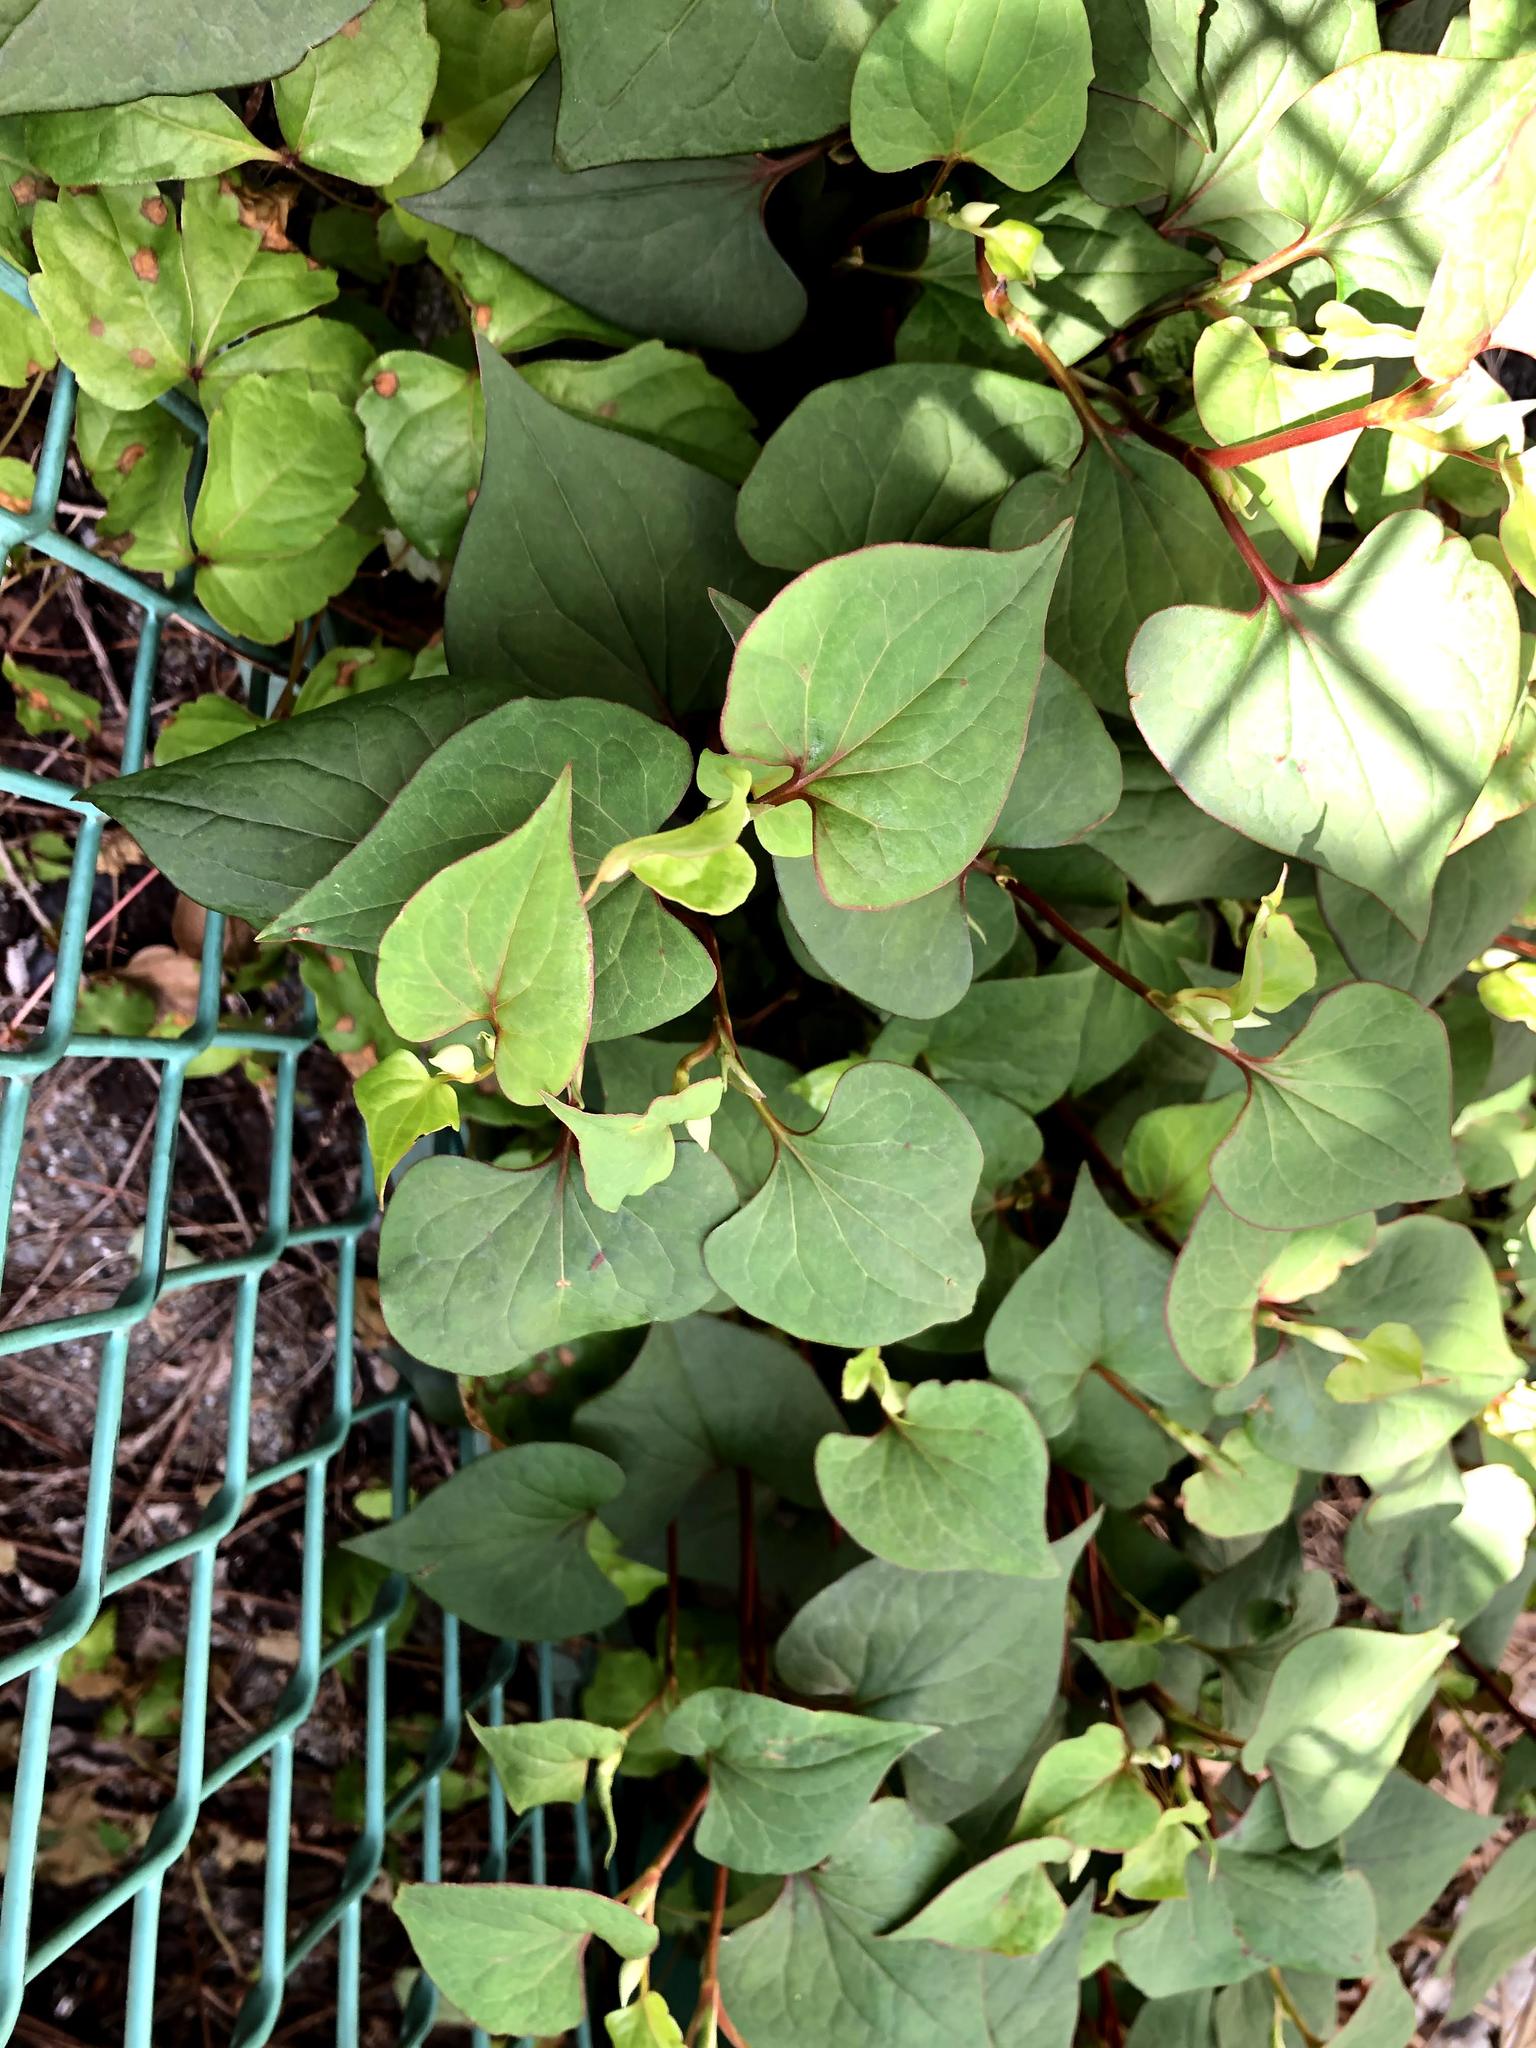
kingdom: Plantae
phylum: Tracheophyta
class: Magnoliopsida
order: Piperales
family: Saururaceae
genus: Houttuynia
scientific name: Houttuynia cordata
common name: Chameleon
